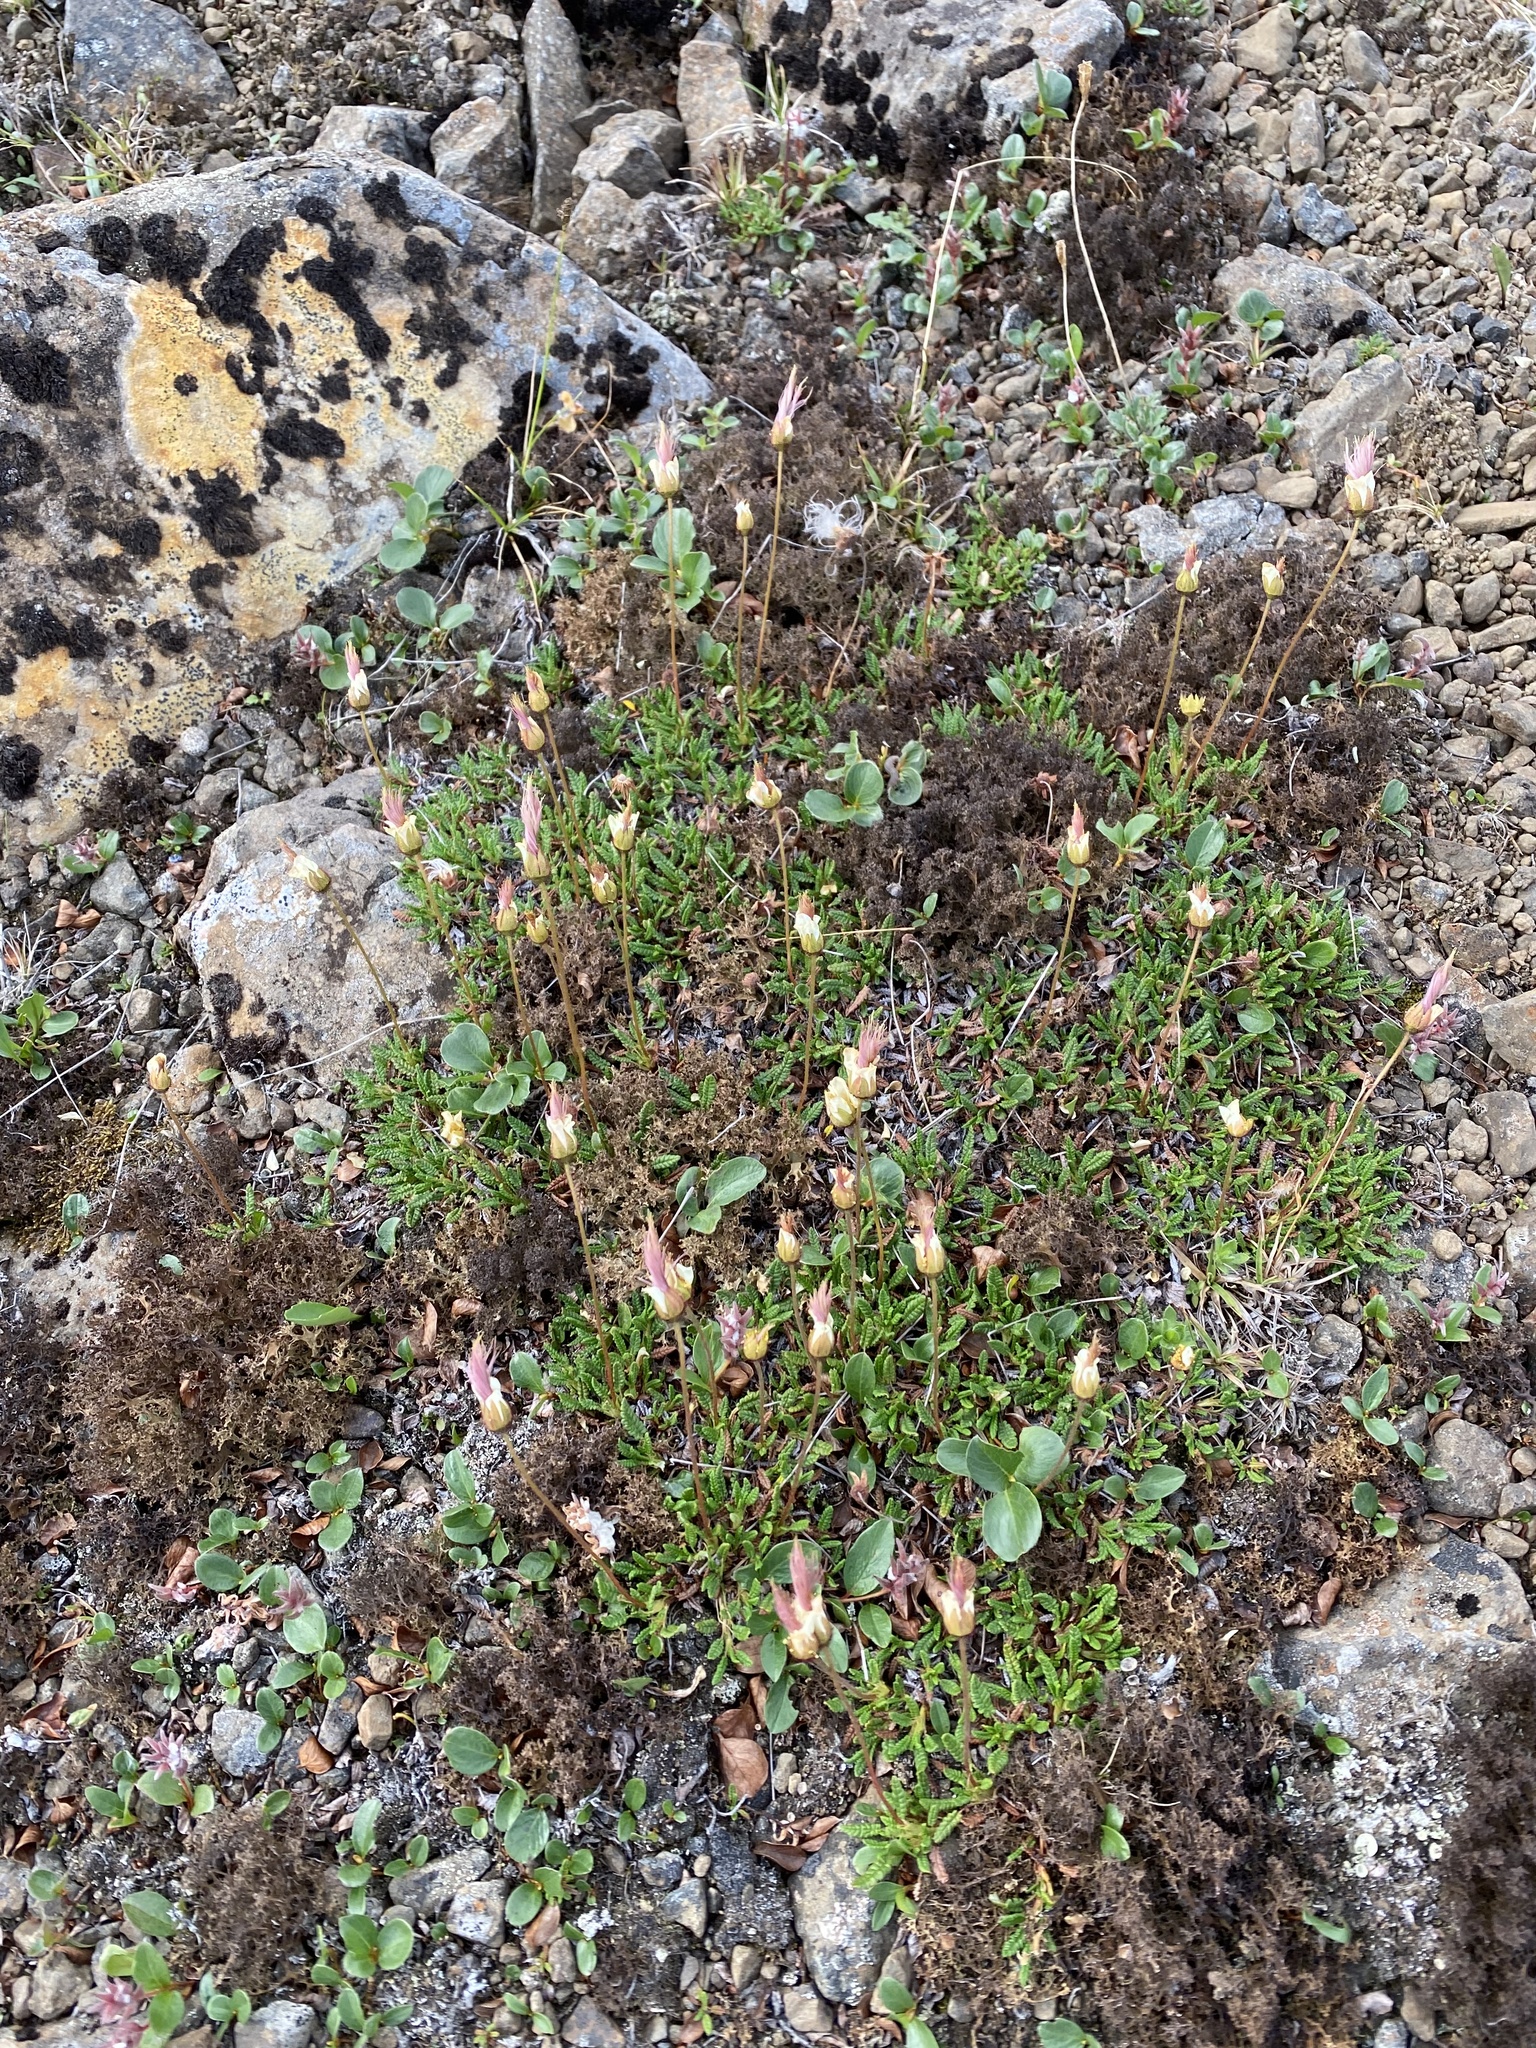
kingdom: Plantae
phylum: Tracheophyta
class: Magnoliopsida
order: Rosales
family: Rosaceae
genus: Dryas
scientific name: Dryas octopetala
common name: Eight-petal mountain-avens
